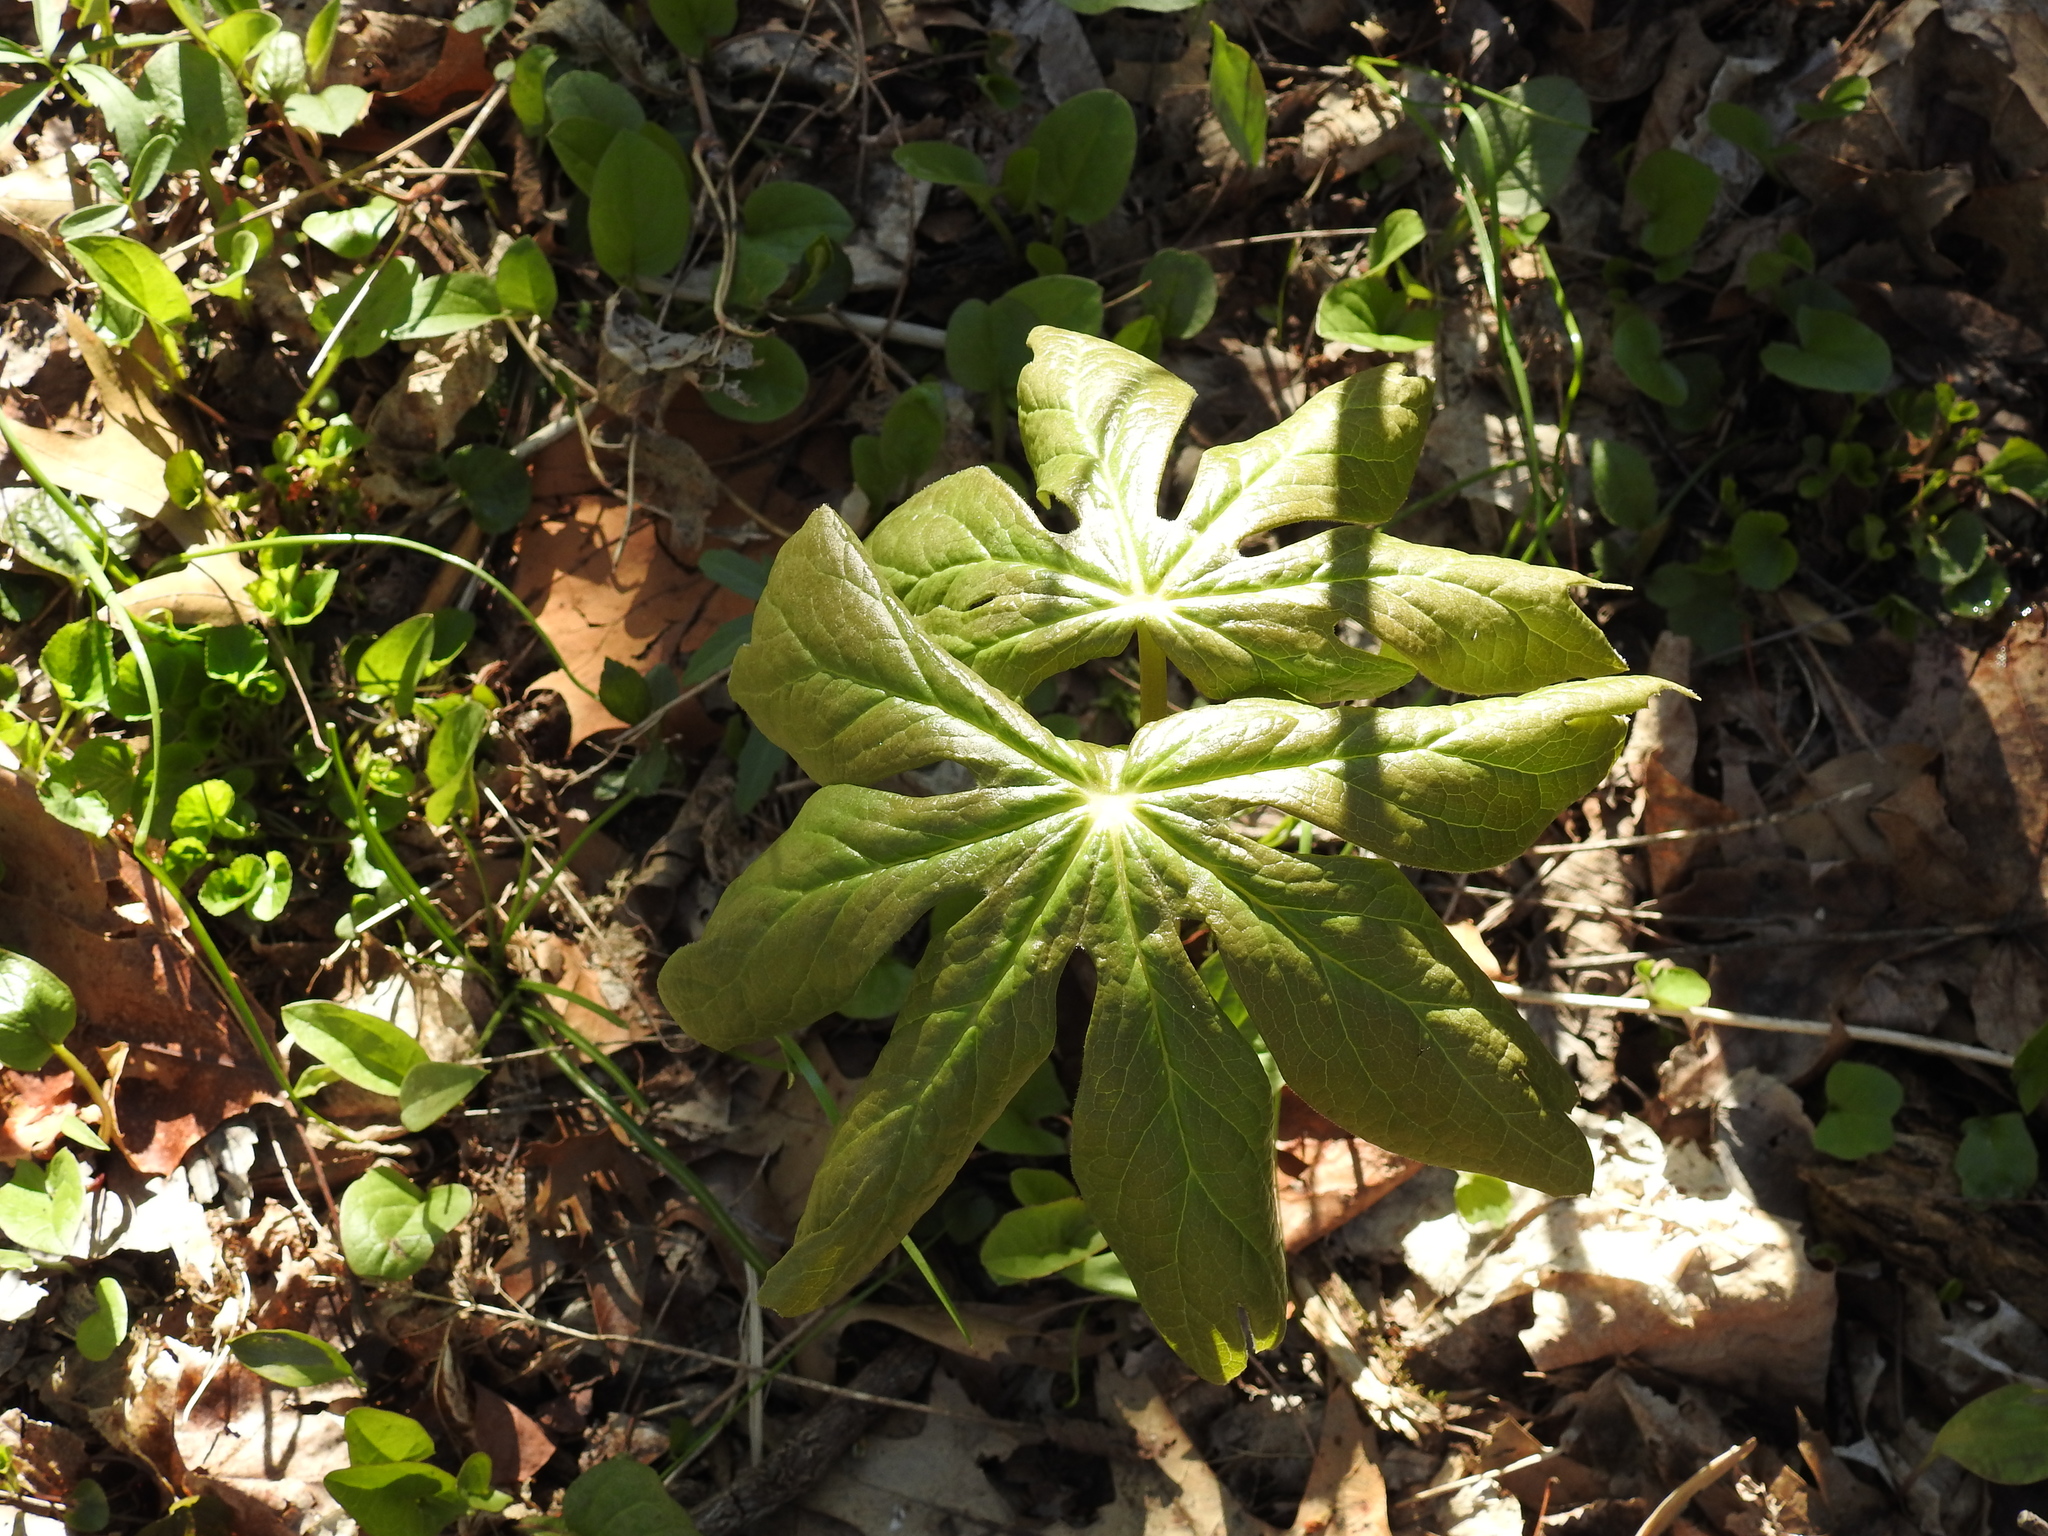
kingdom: Plantae
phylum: Tracheophyta
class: Magnoliopsida
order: Ranunculales
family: Berberidaceae
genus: Podophyllum
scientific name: Podophyllum peltatum
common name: Wild mandrake
